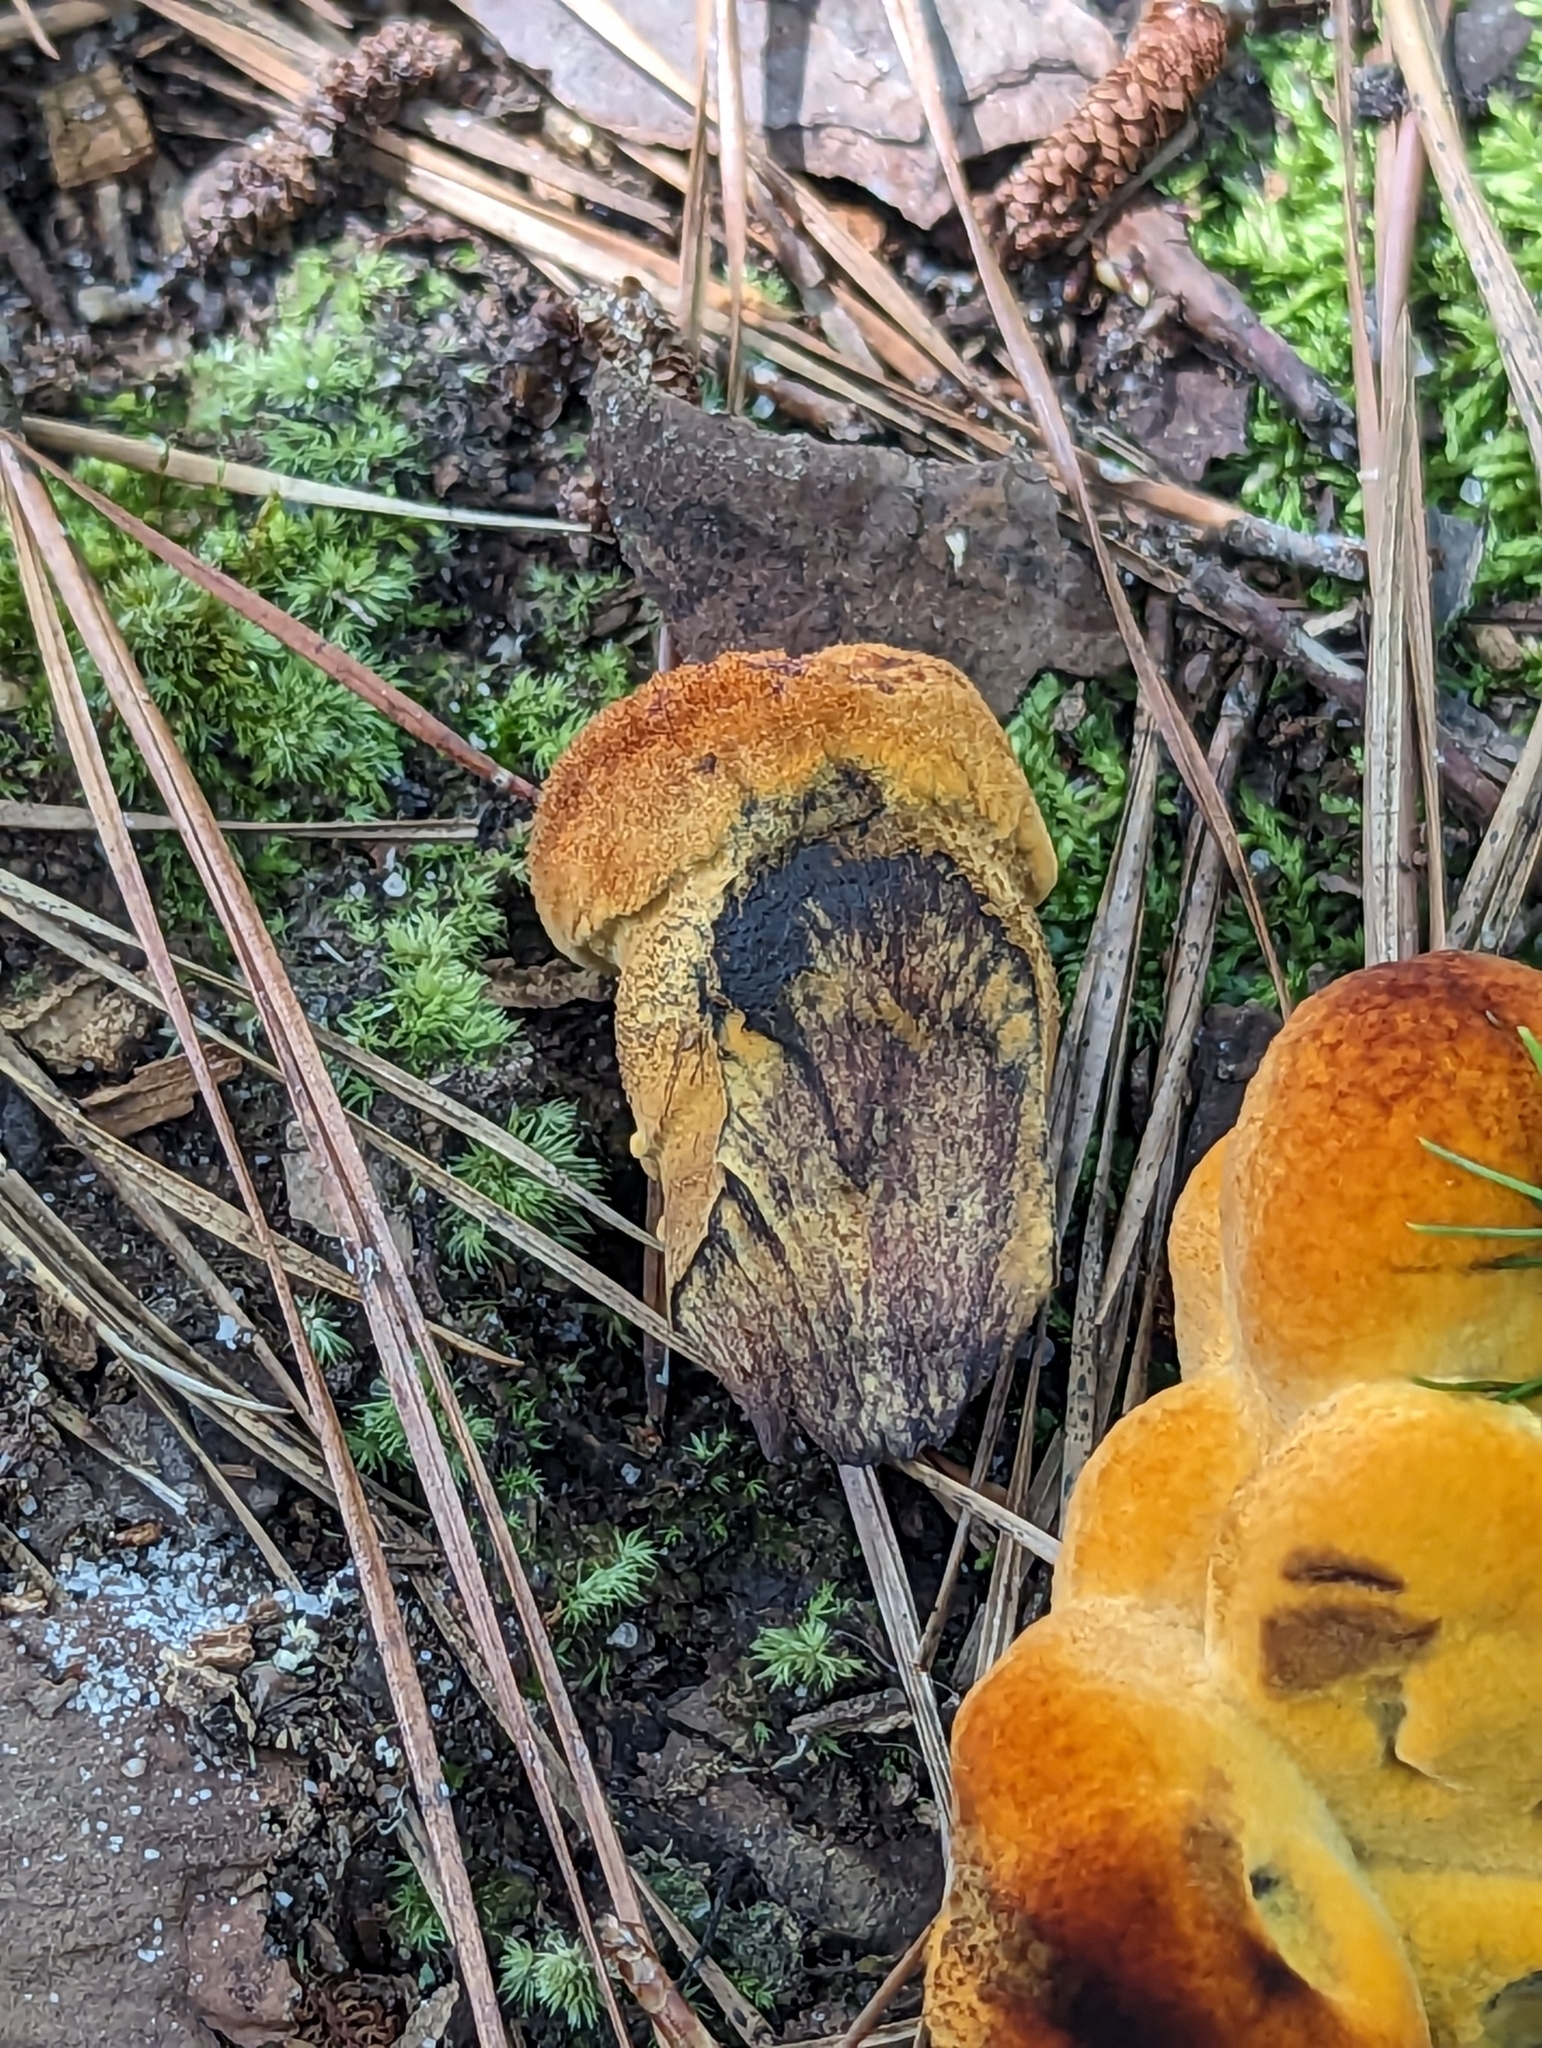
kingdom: Fungi
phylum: Basidiomycota
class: Agaricomycetes
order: Polyporales
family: Laetiporaceae
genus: Phaeolus
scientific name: Phaeolus schweinitzii
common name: Dyer's mazegill
